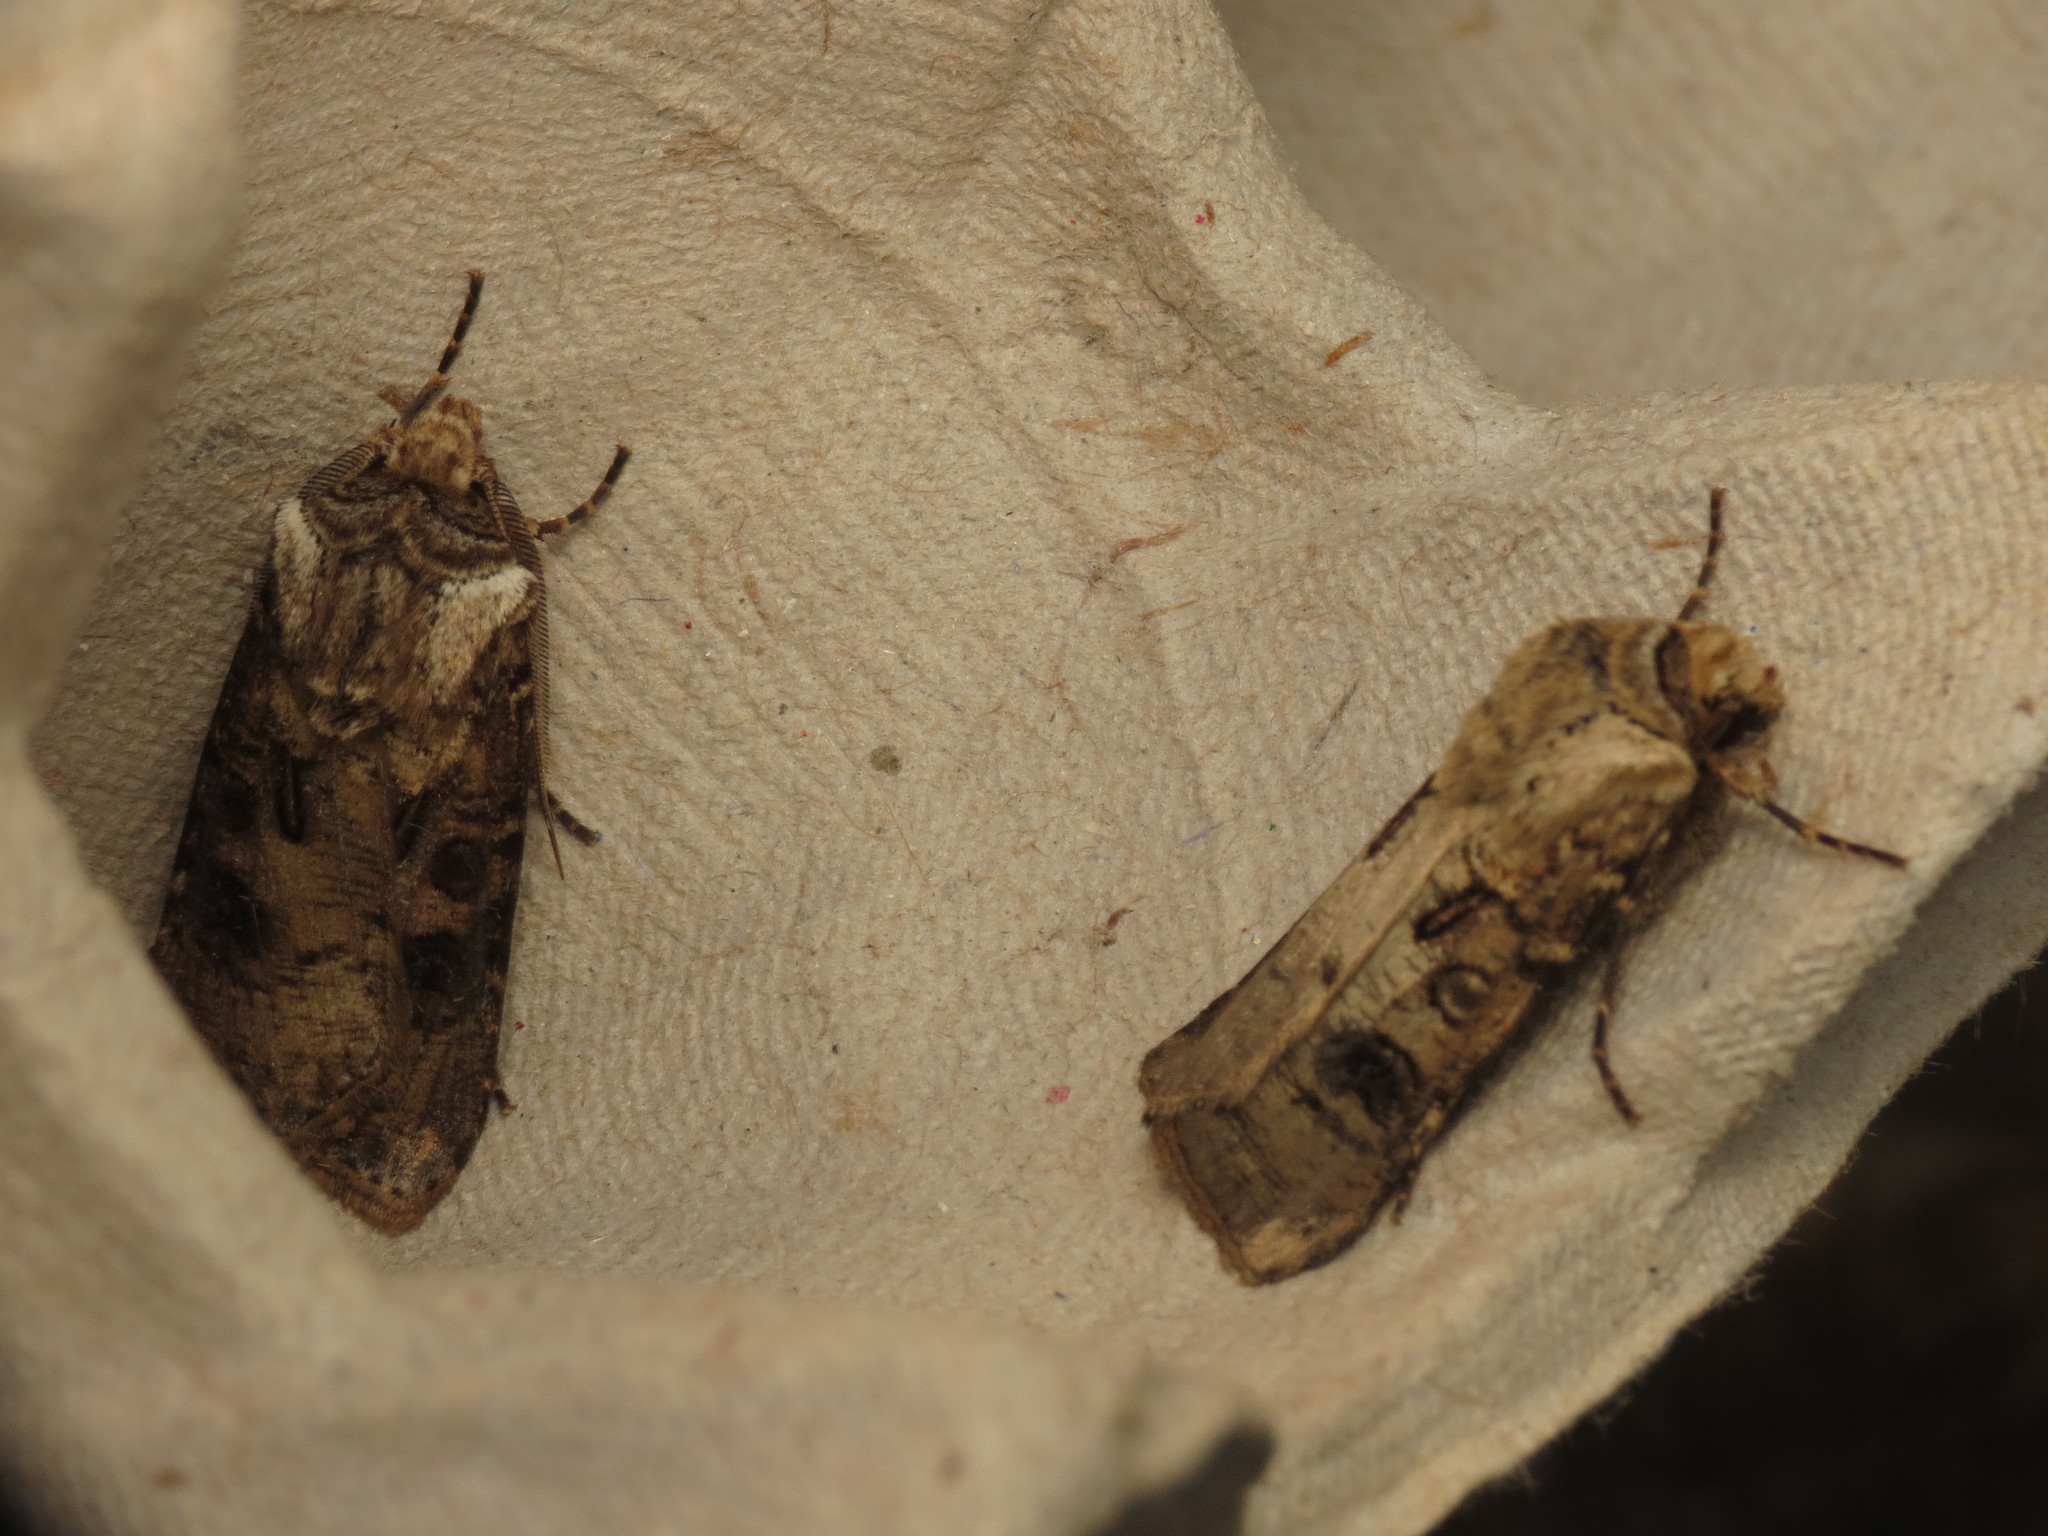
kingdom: Animalia
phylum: Arthropoda
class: Insecta
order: Lepidoptera
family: Noctuidae
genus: Agrotis
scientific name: Agrotis clavis
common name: Heart and club
